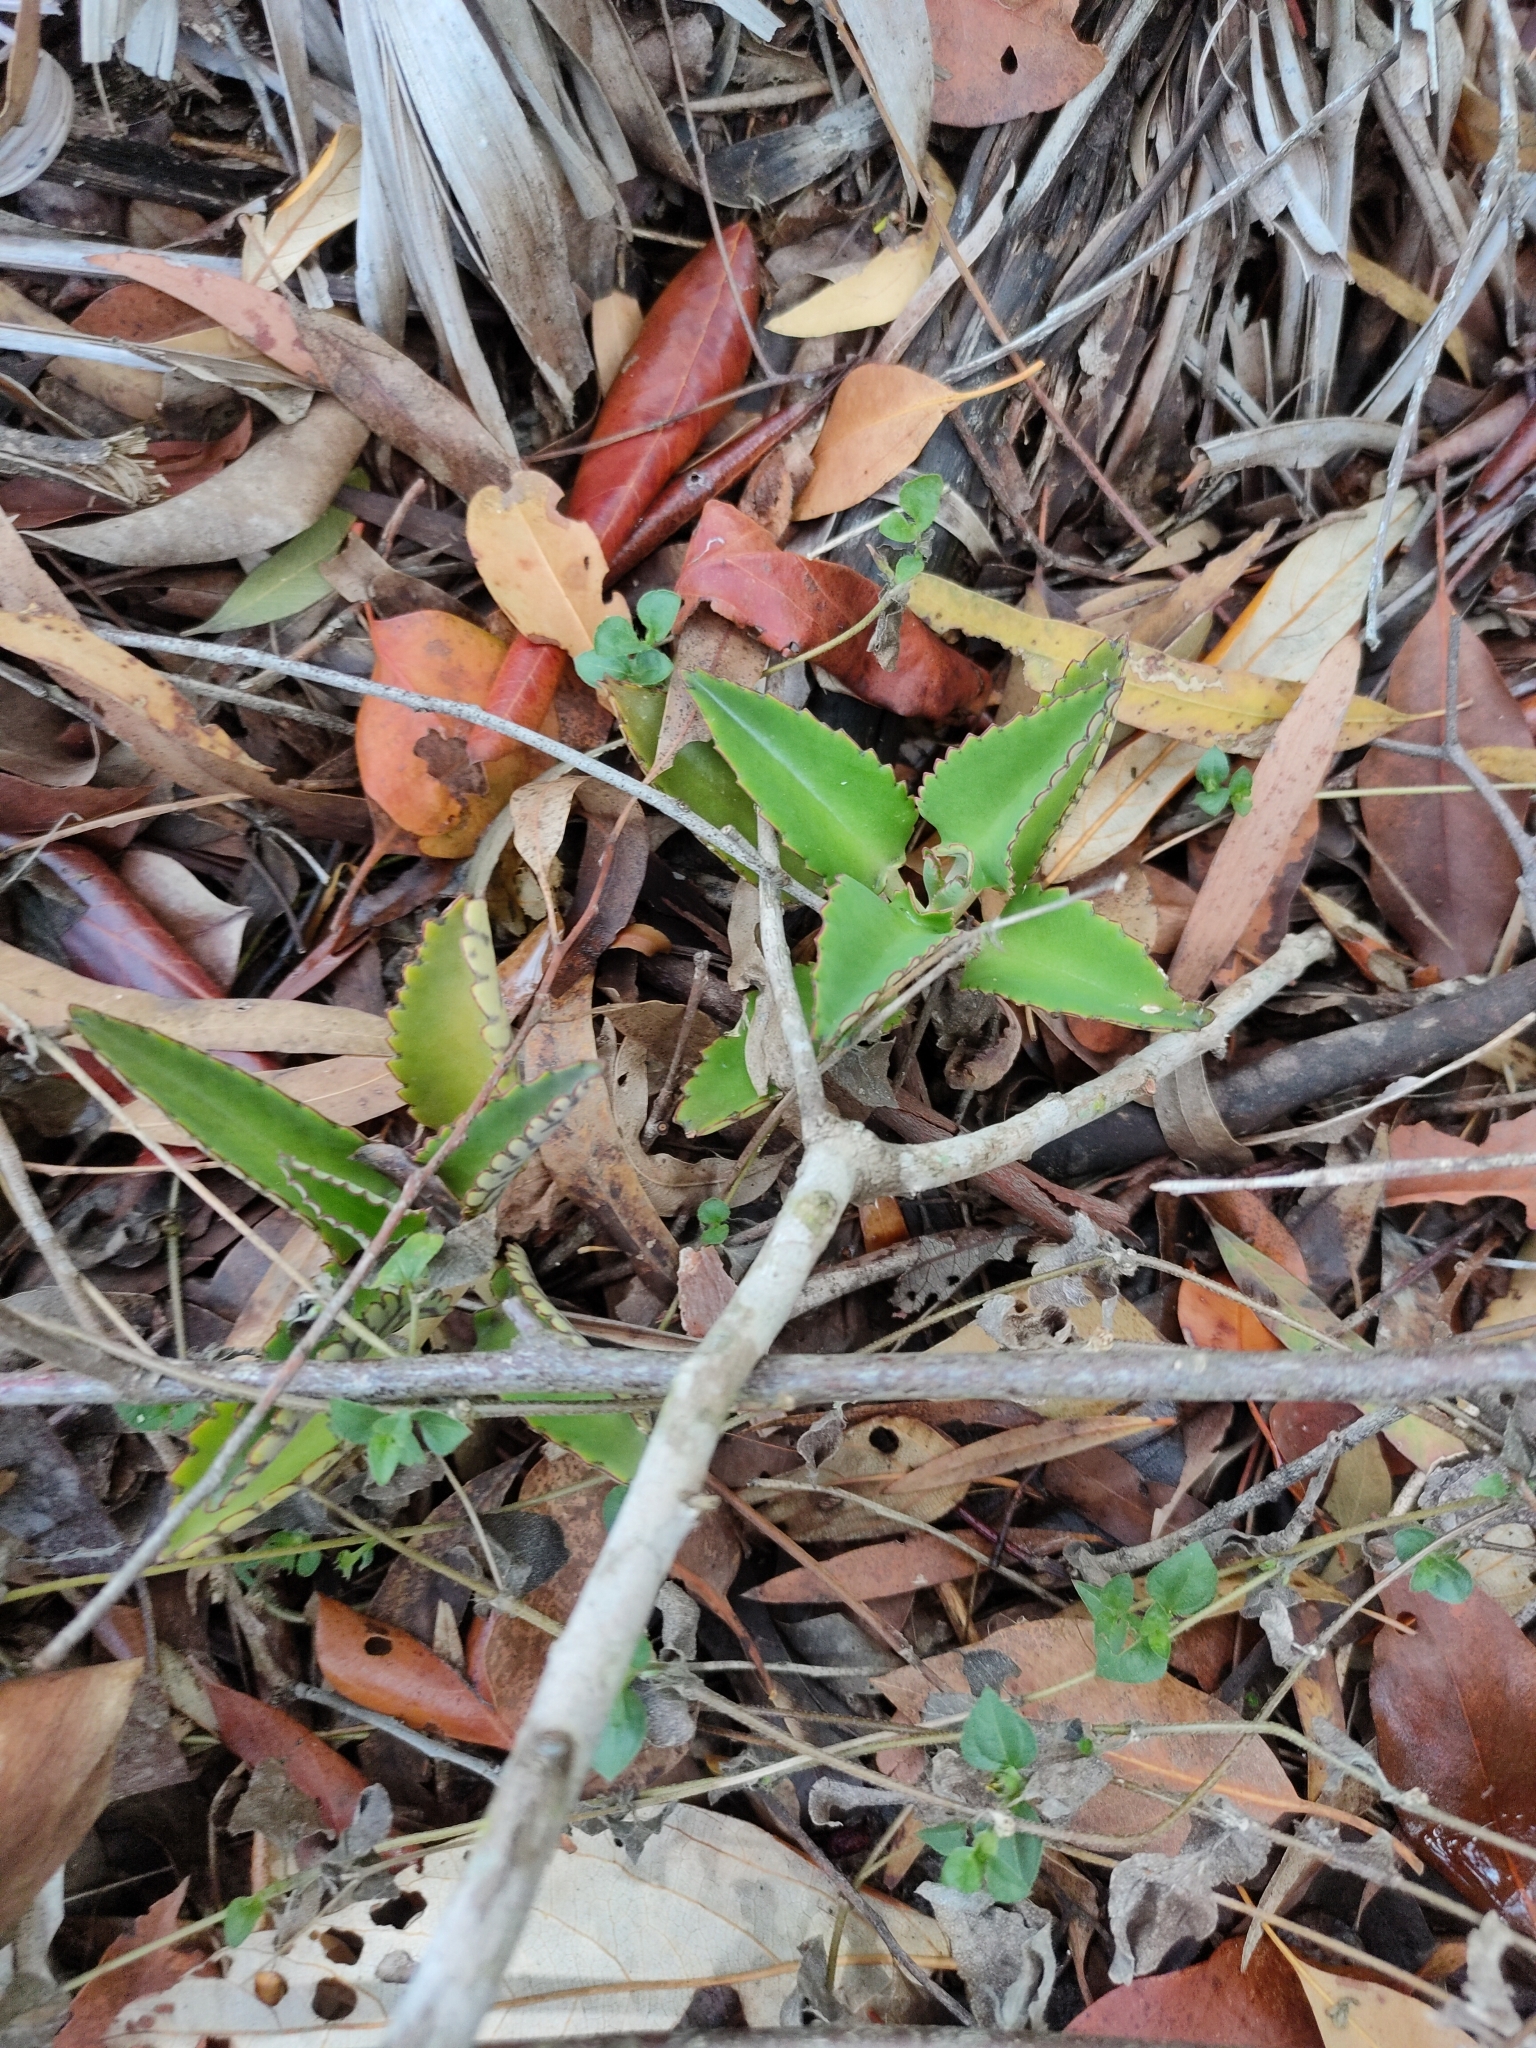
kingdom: Plantae
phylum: Tracheophyta
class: Magnoliopsida
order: Saxifragales
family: Crassulaceae
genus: Kalanchoe
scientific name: Kalanchoe daigremontiana
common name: Devil's backbone
